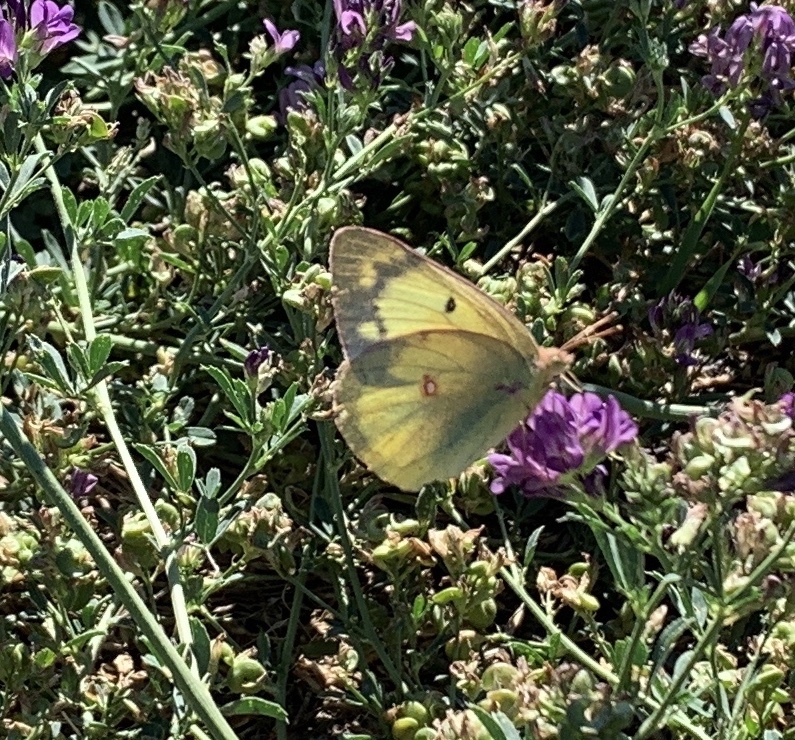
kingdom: Animalia
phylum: Arthropoda
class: Insecta
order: Lepidoptera
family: Pieridae
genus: Colias
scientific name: Colias philodice
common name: Clouded sulphur
